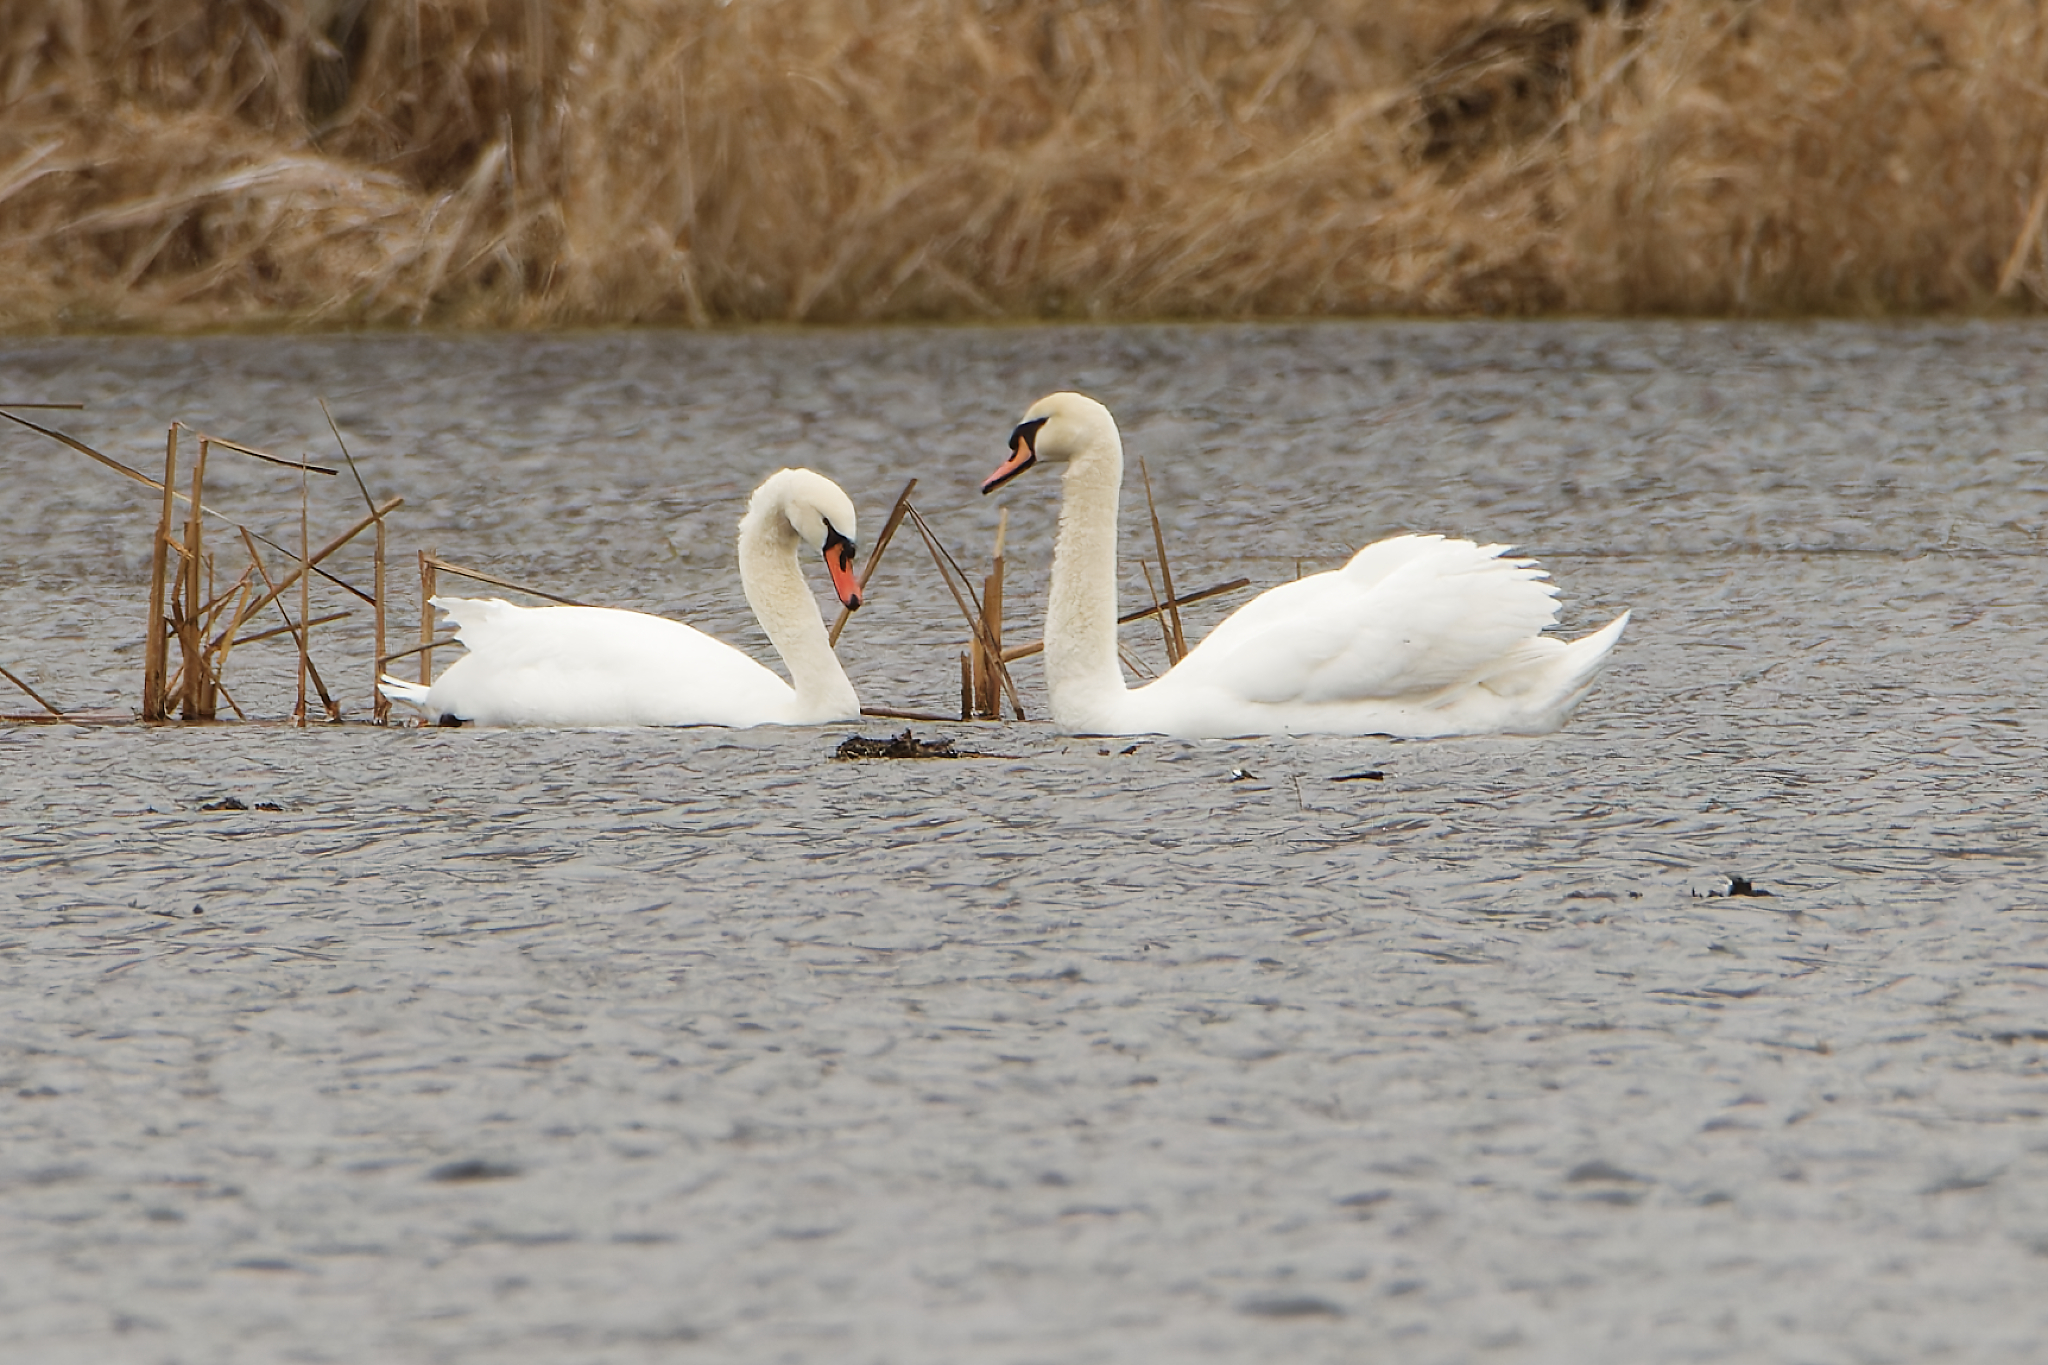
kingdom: Animalia
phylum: Chordata
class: Aves
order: Anseriformes
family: Anatidae
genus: Cygnus
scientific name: Cygnus olor
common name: Mute swan
